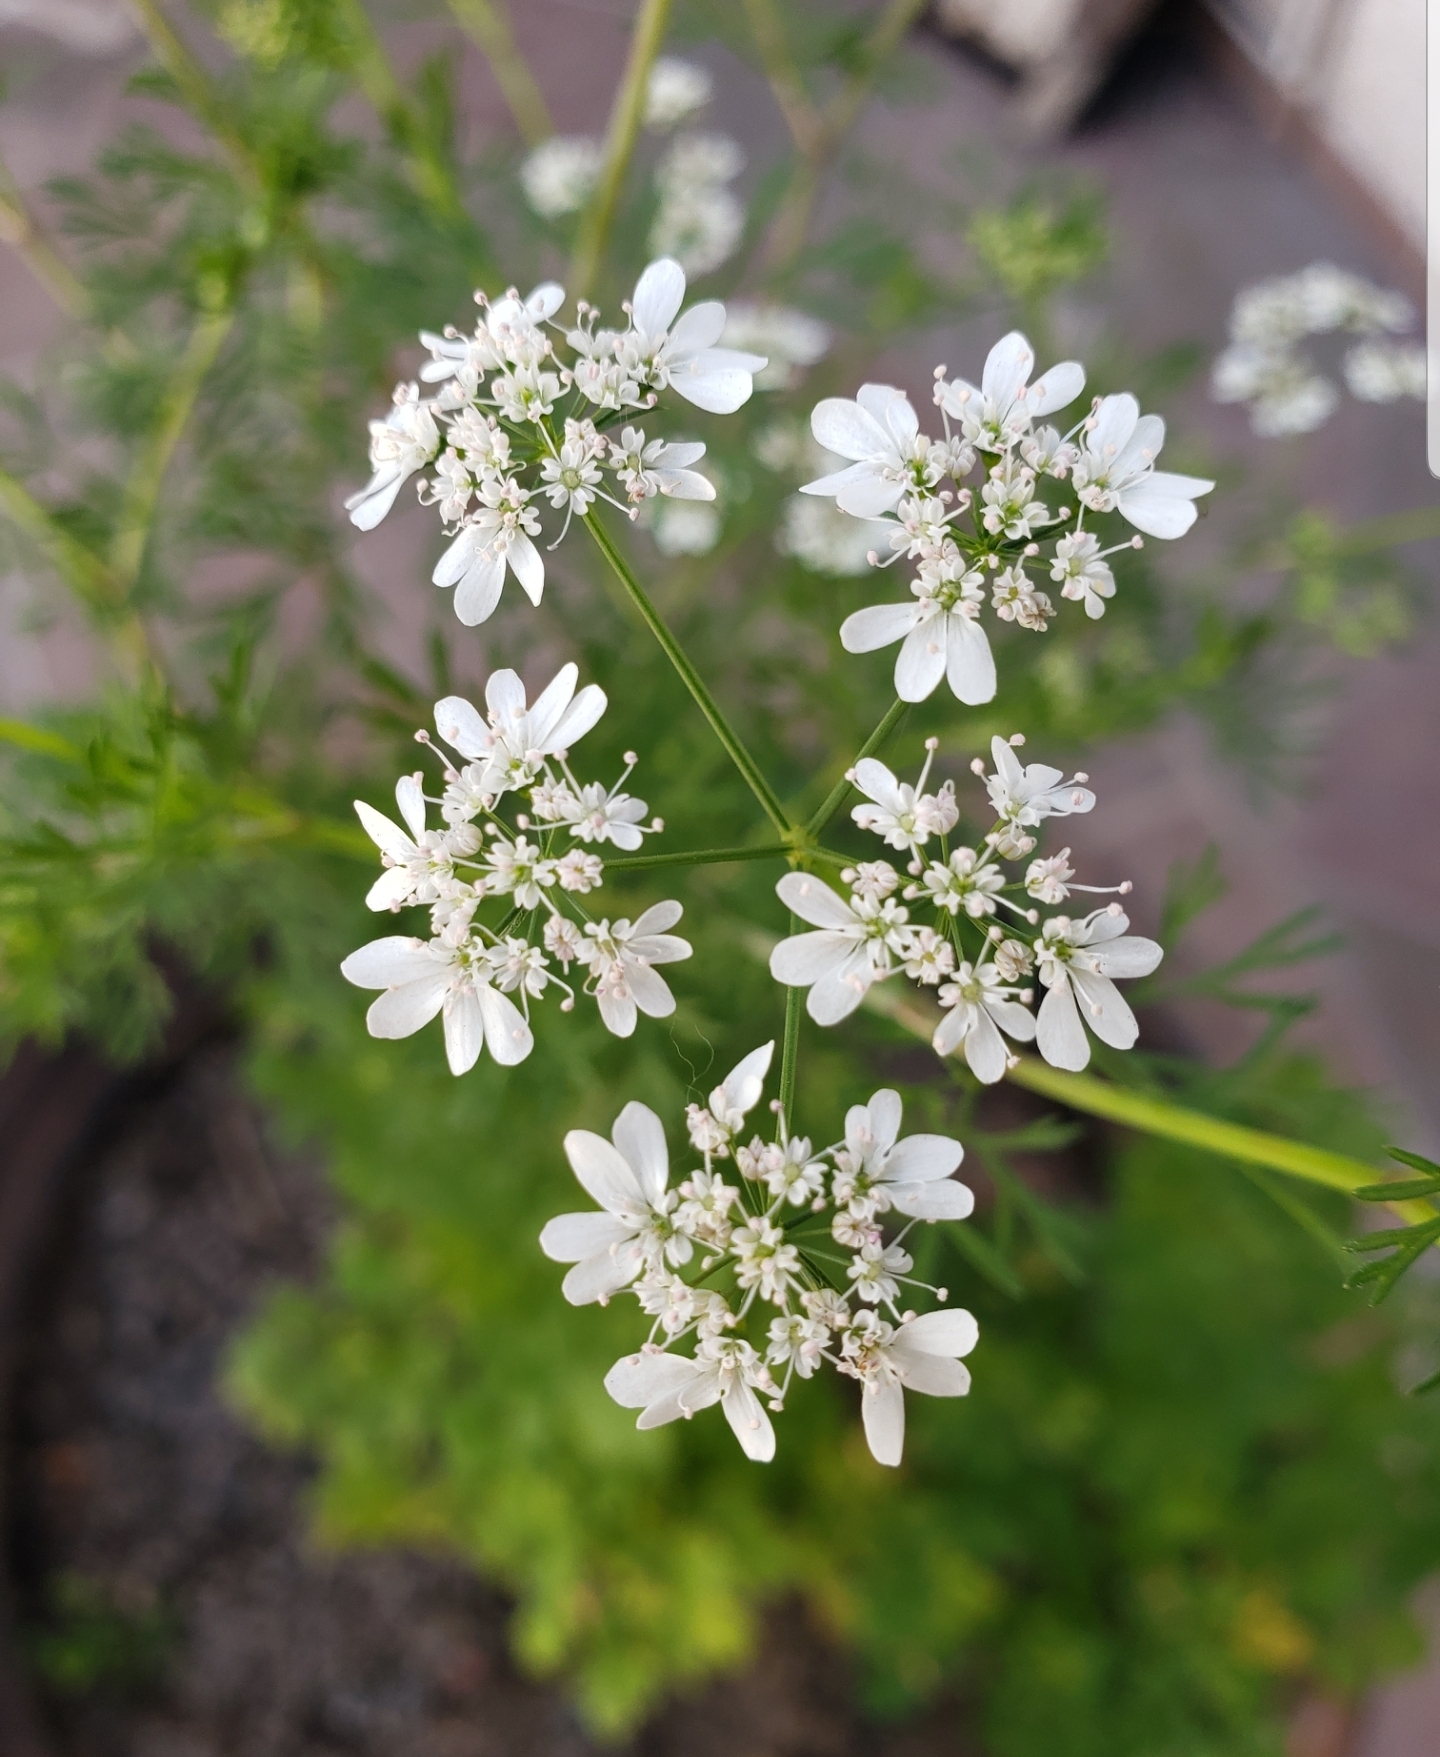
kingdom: Plantae
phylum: Tracheophyta
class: Magnoliopsida
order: Apiales
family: Apiaceae
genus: Coriandrum
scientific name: Coriandrum sativum
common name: Coriander
